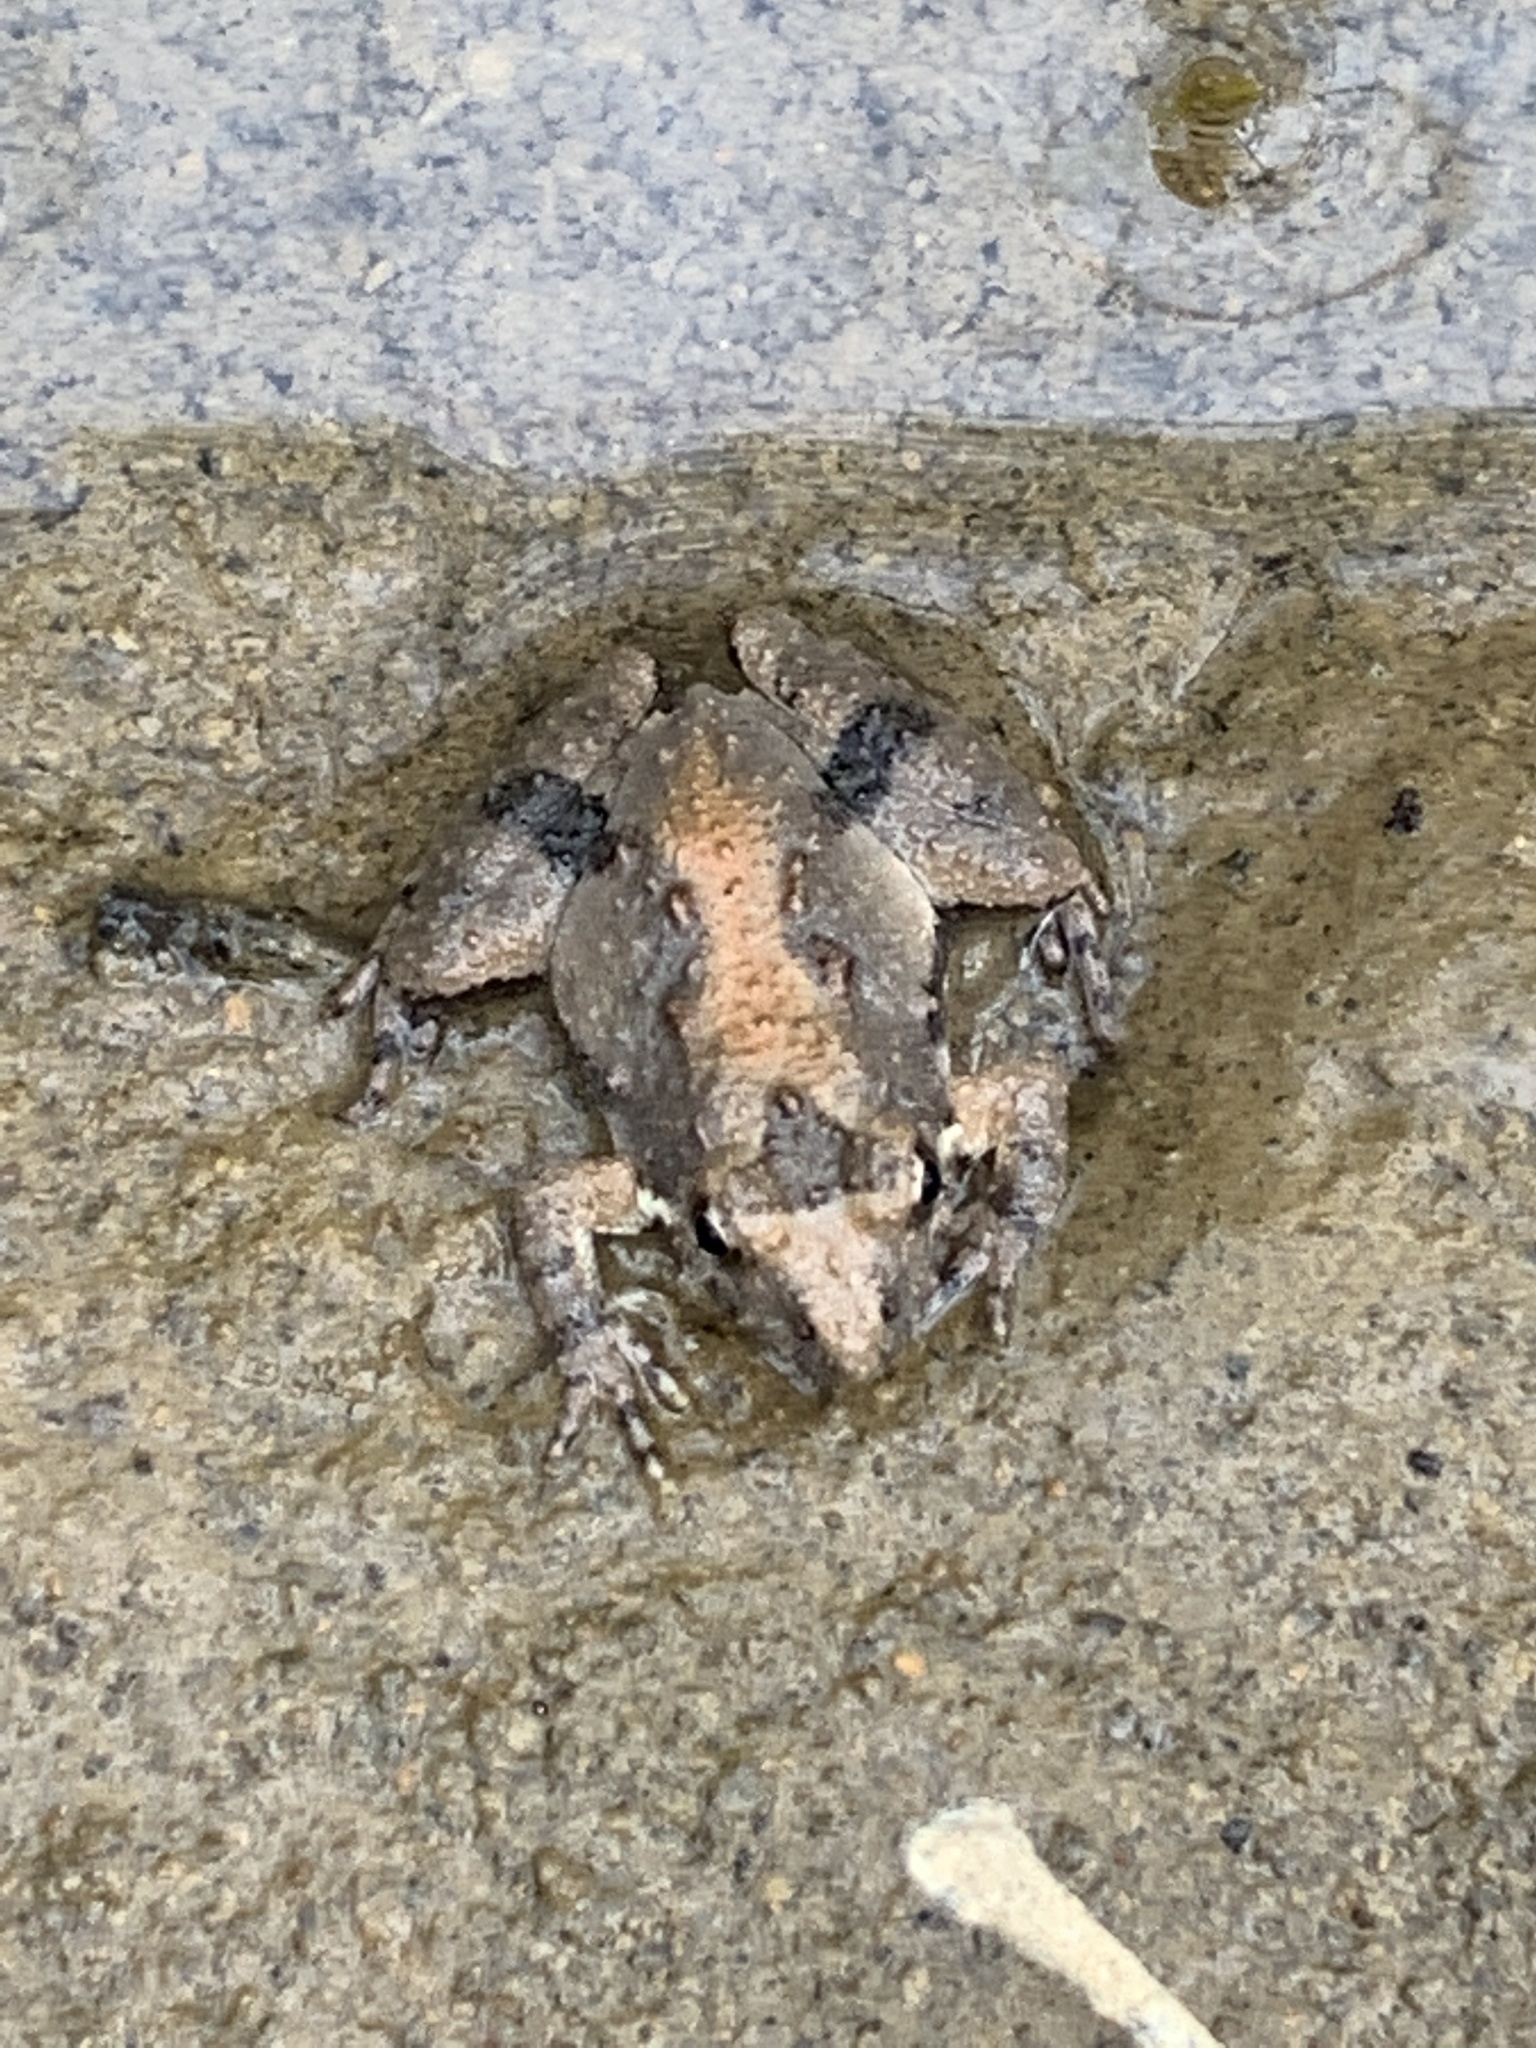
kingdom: Animalia
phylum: Chordata
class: Amphibia
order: Anura
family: Hylidae
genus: Acris
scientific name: Acris blanchardi
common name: Blanchard's cricket frog
